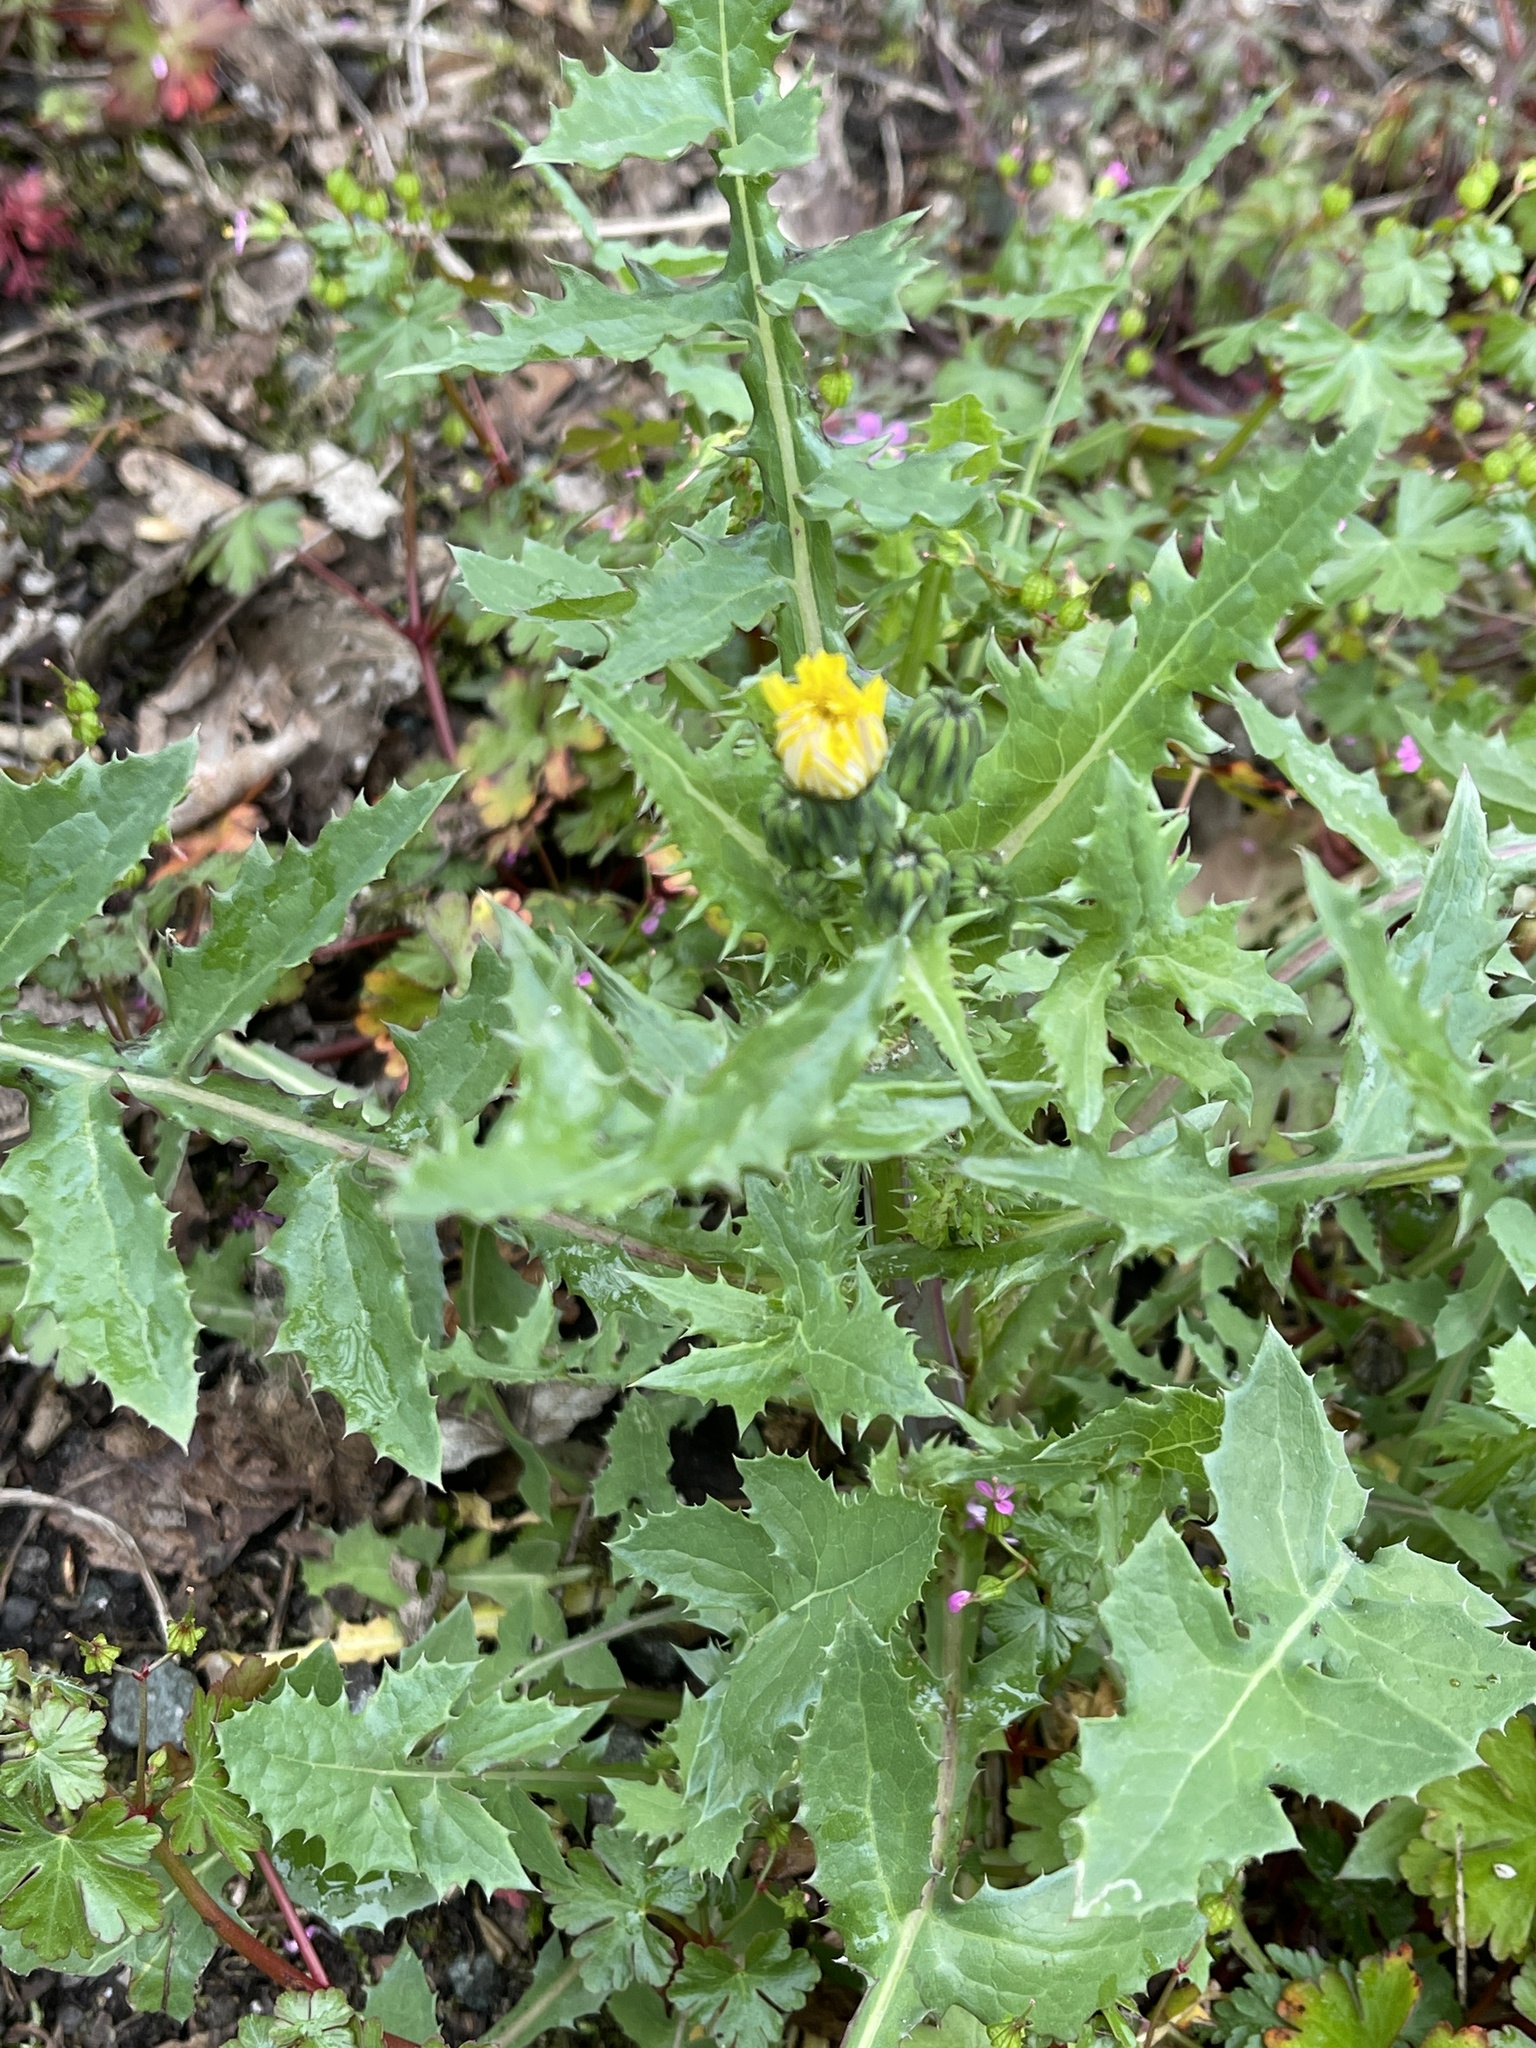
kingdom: Plantae
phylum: Tracheophyta
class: Magnoliopsida
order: Asterales
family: Asteraceae
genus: Sonchus
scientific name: Sonchus oleraceus
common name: Common sowthistle
